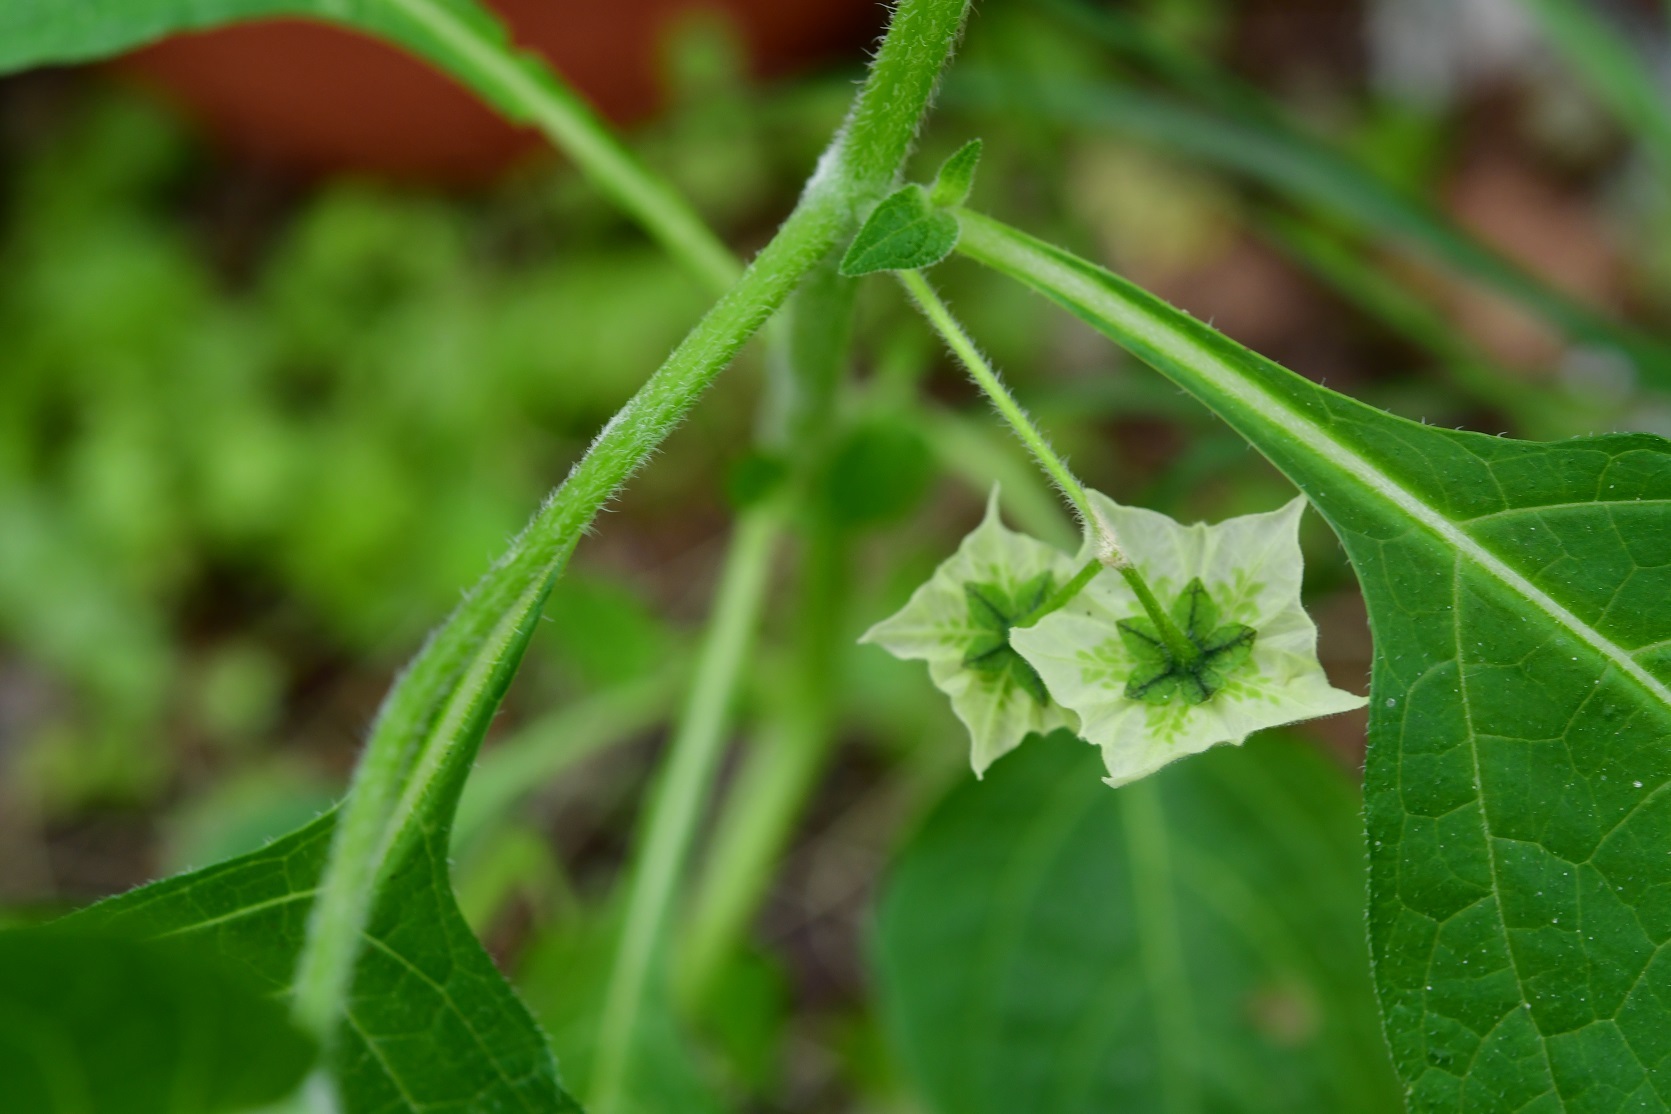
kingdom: Plantae
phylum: Tracheophyta
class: Magnoliopsida
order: Solanales
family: Solanaceae
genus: Jaltomata
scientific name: Jaltomata procumbens
